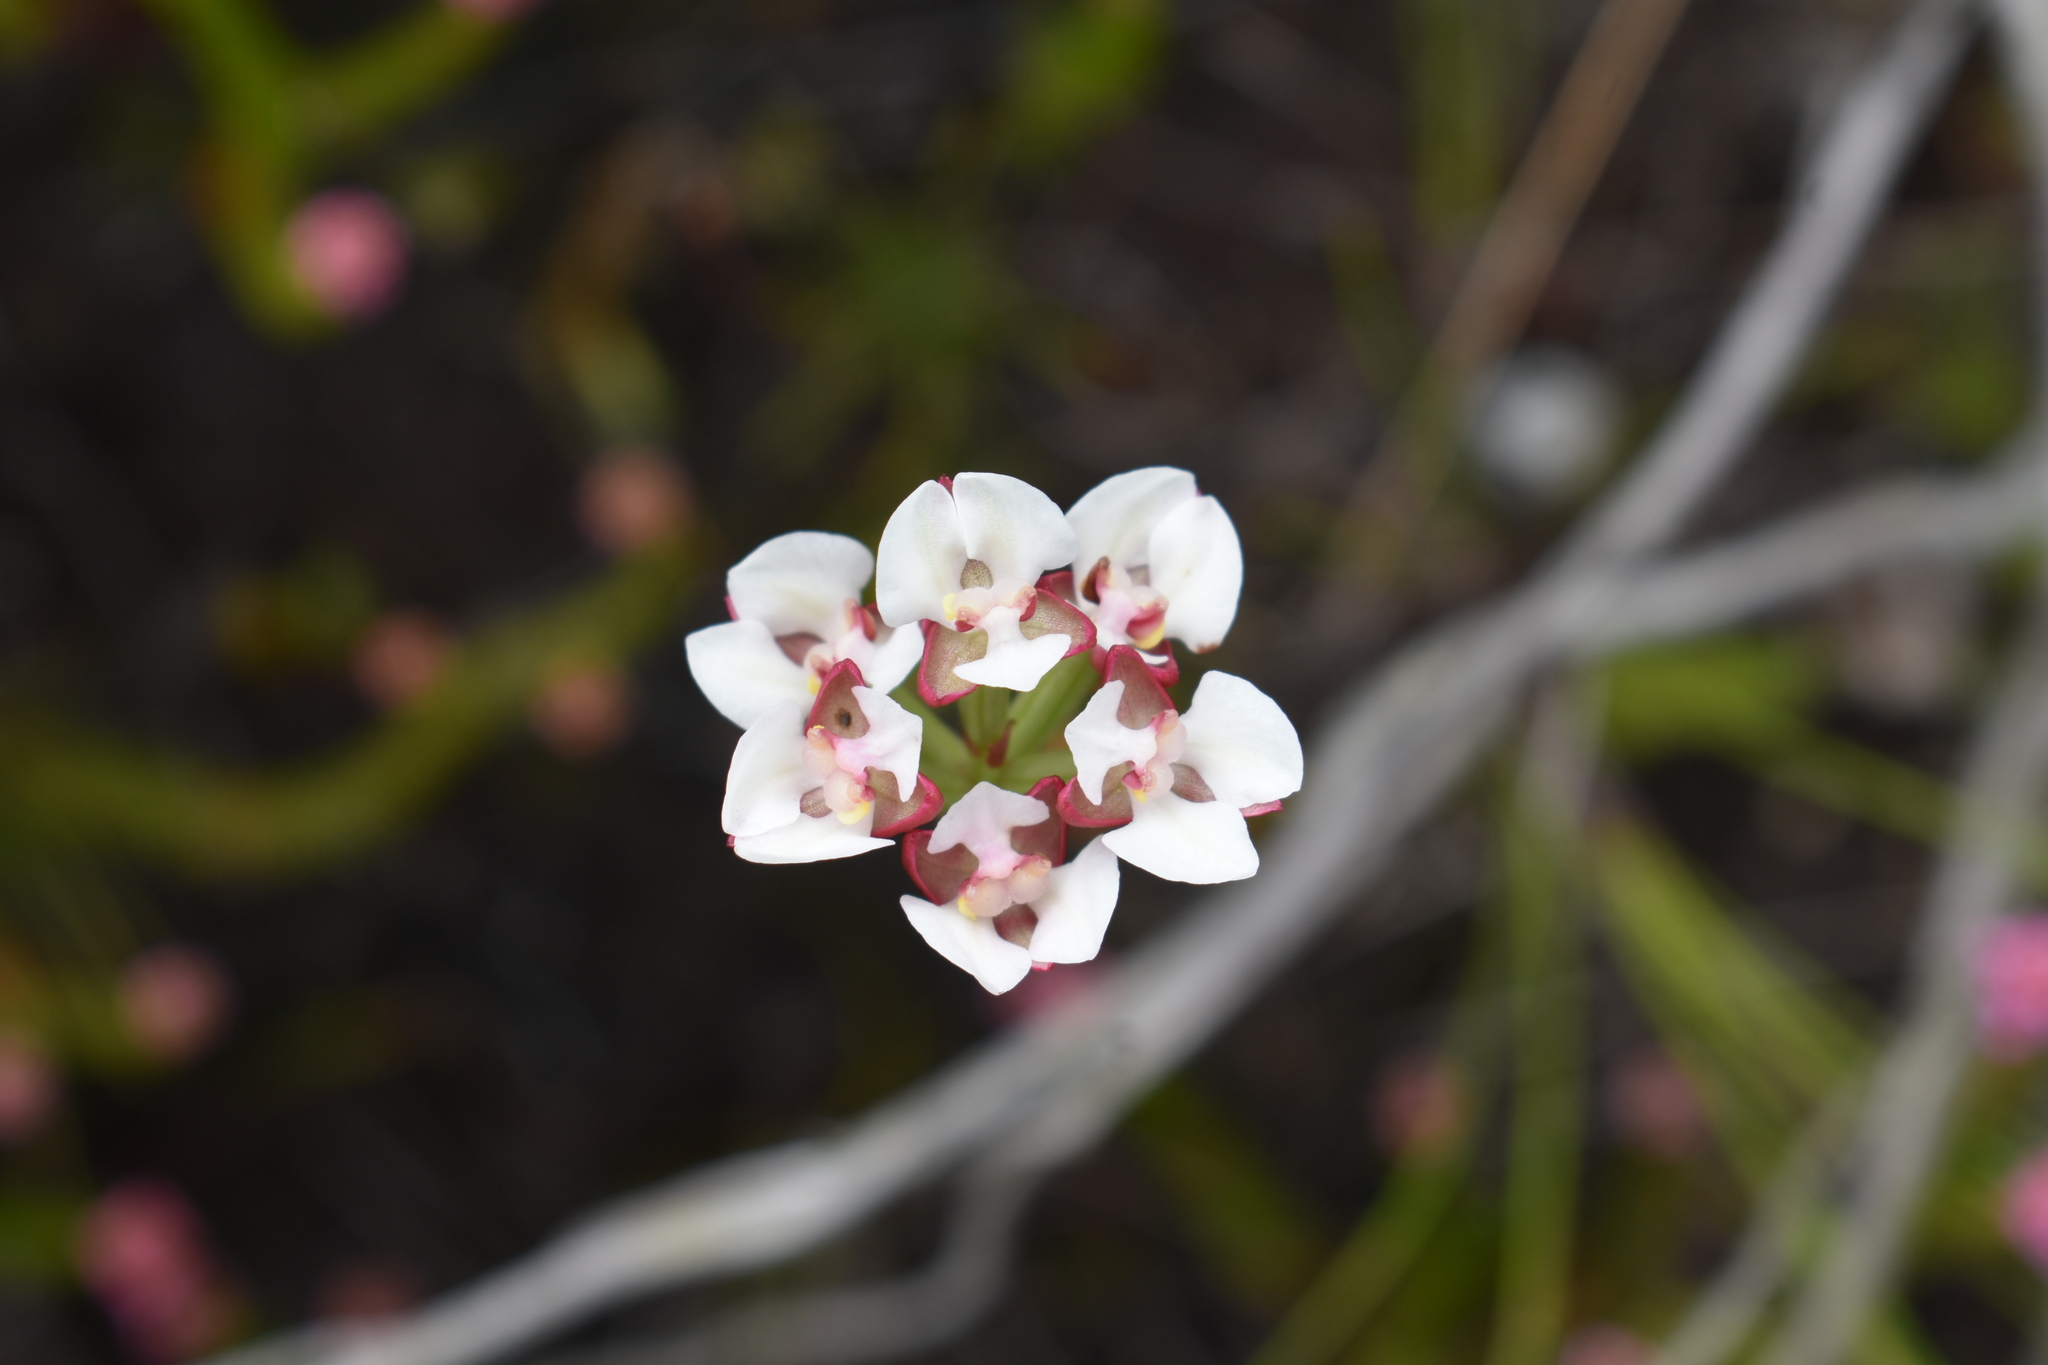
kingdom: Plantae
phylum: Tracheophyta
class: Liliopsida
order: Asparagales
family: Orchidaceae
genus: Ceratandra
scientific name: Ceratandra globosa
